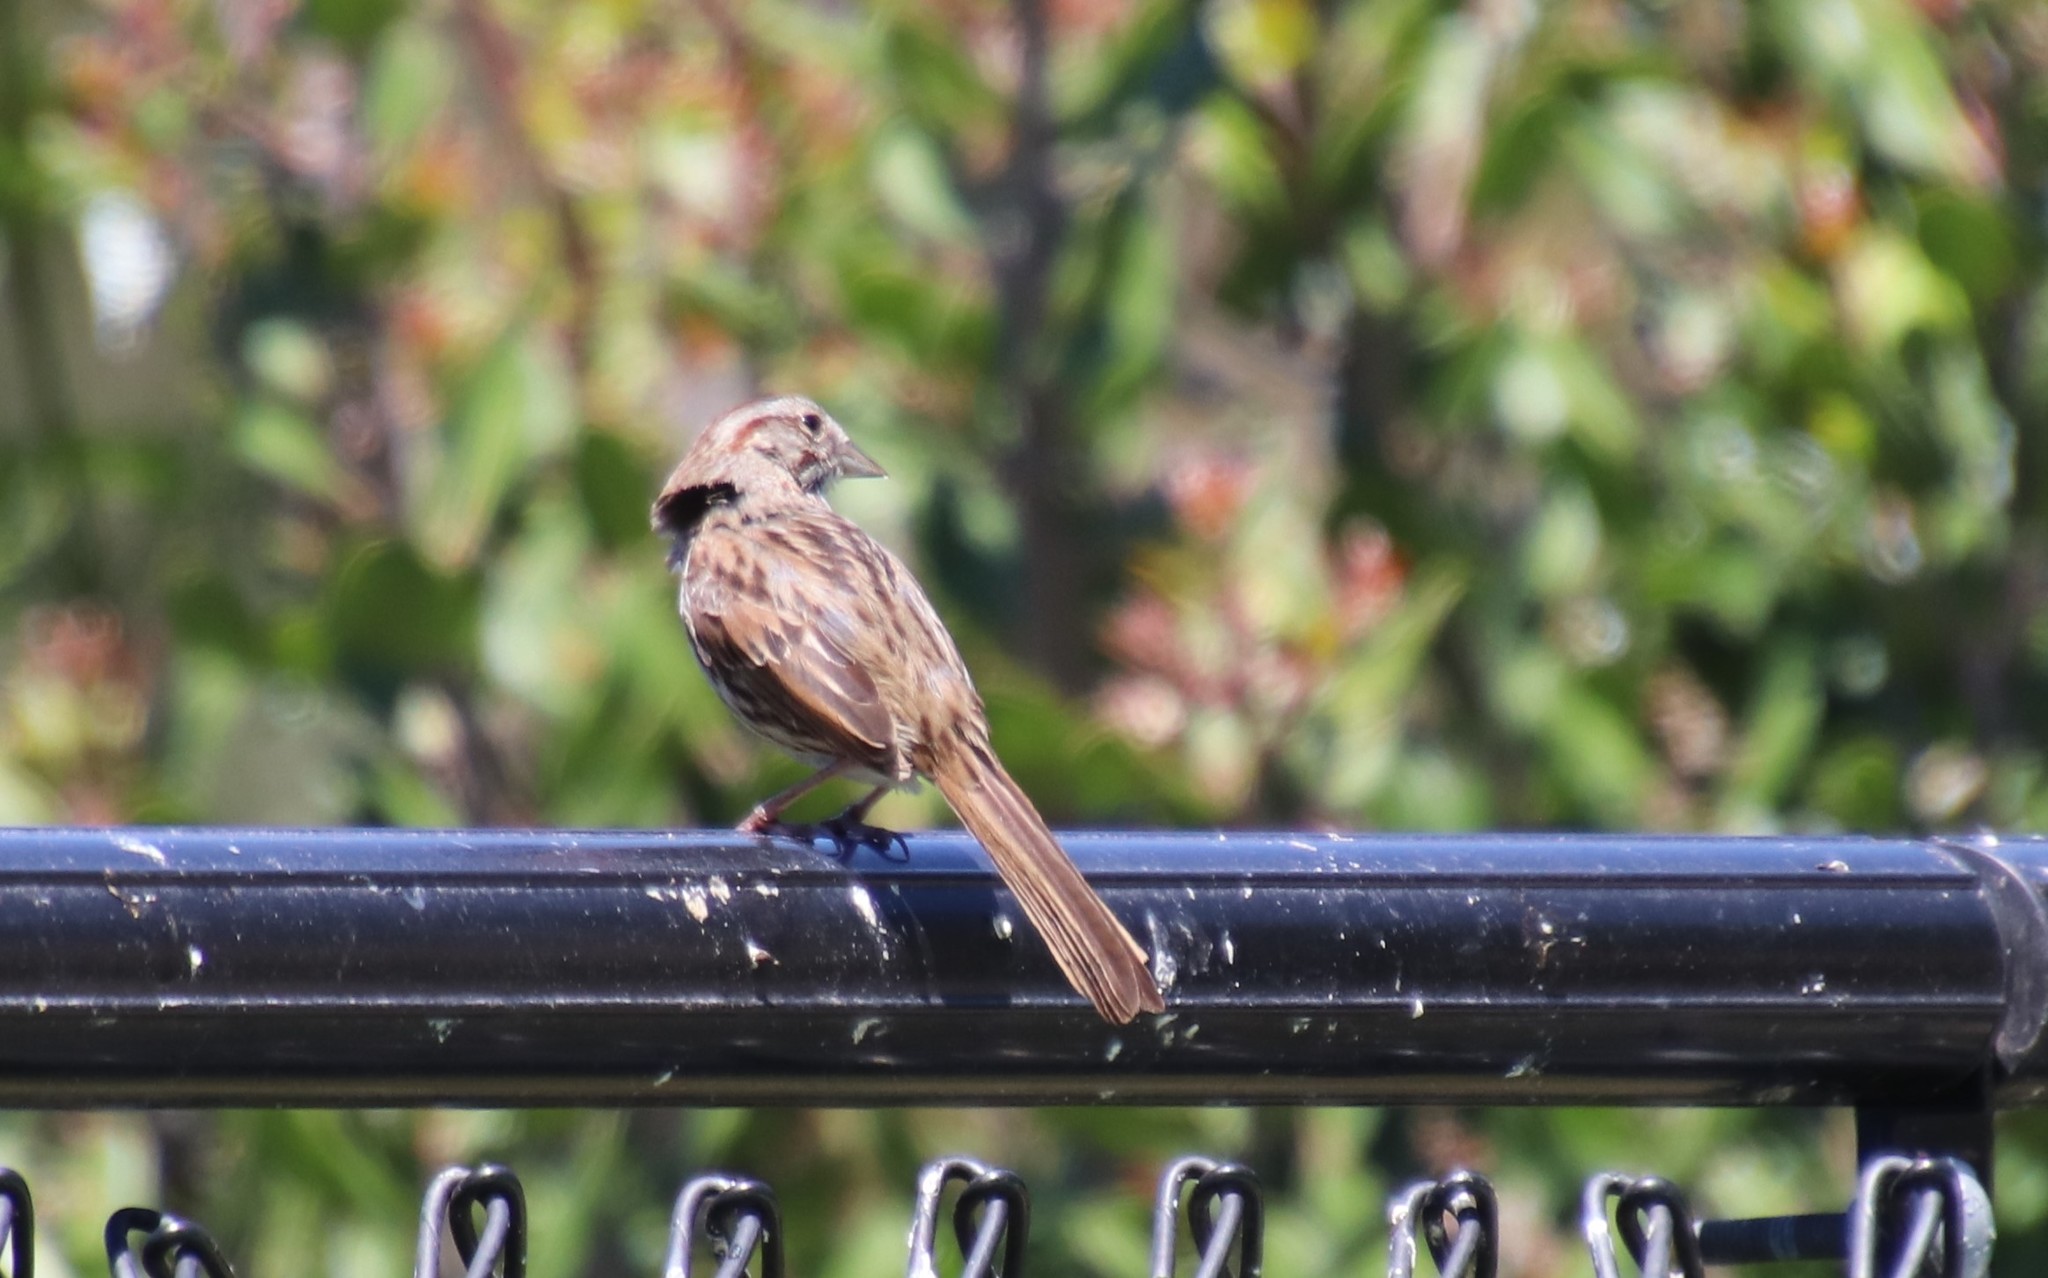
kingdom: Animalia
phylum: Chordata
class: Aves
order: Passeriformes
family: Passerellidae
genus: Melospiza
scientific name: Melospiza melodia
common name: Song sparrow
